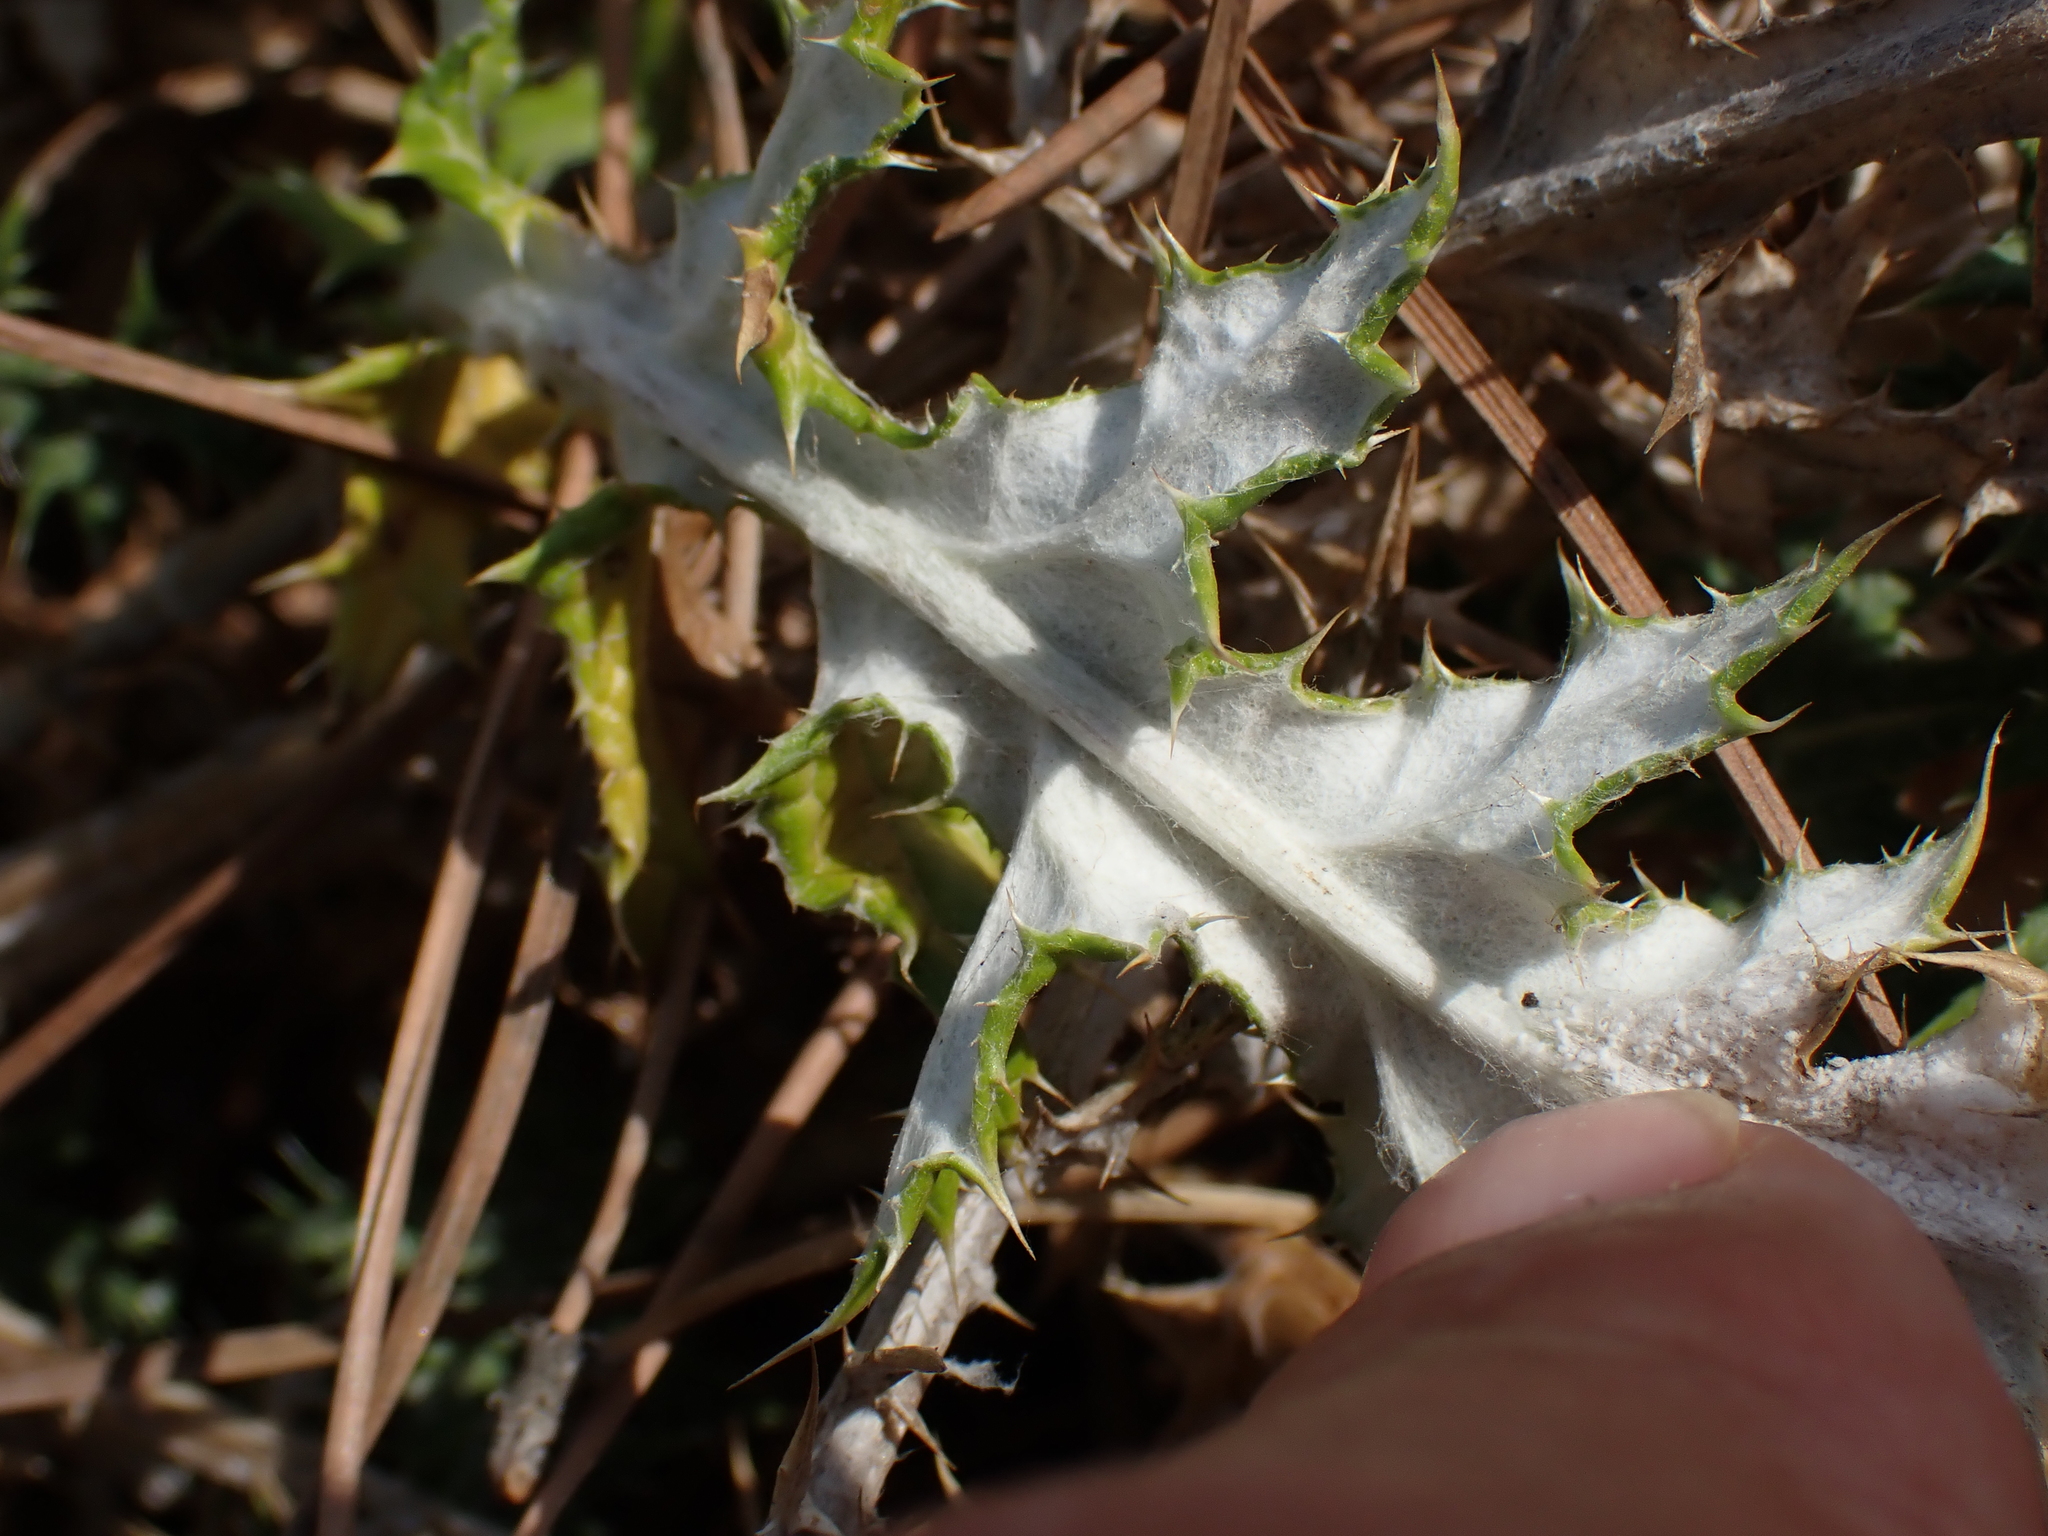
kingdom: Plantae
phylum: Tracheophyta
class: Magnoliopsida
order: Asterales
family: Asteraceae
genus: Echinops
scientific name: Echinops ritro
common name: Globe thistle
